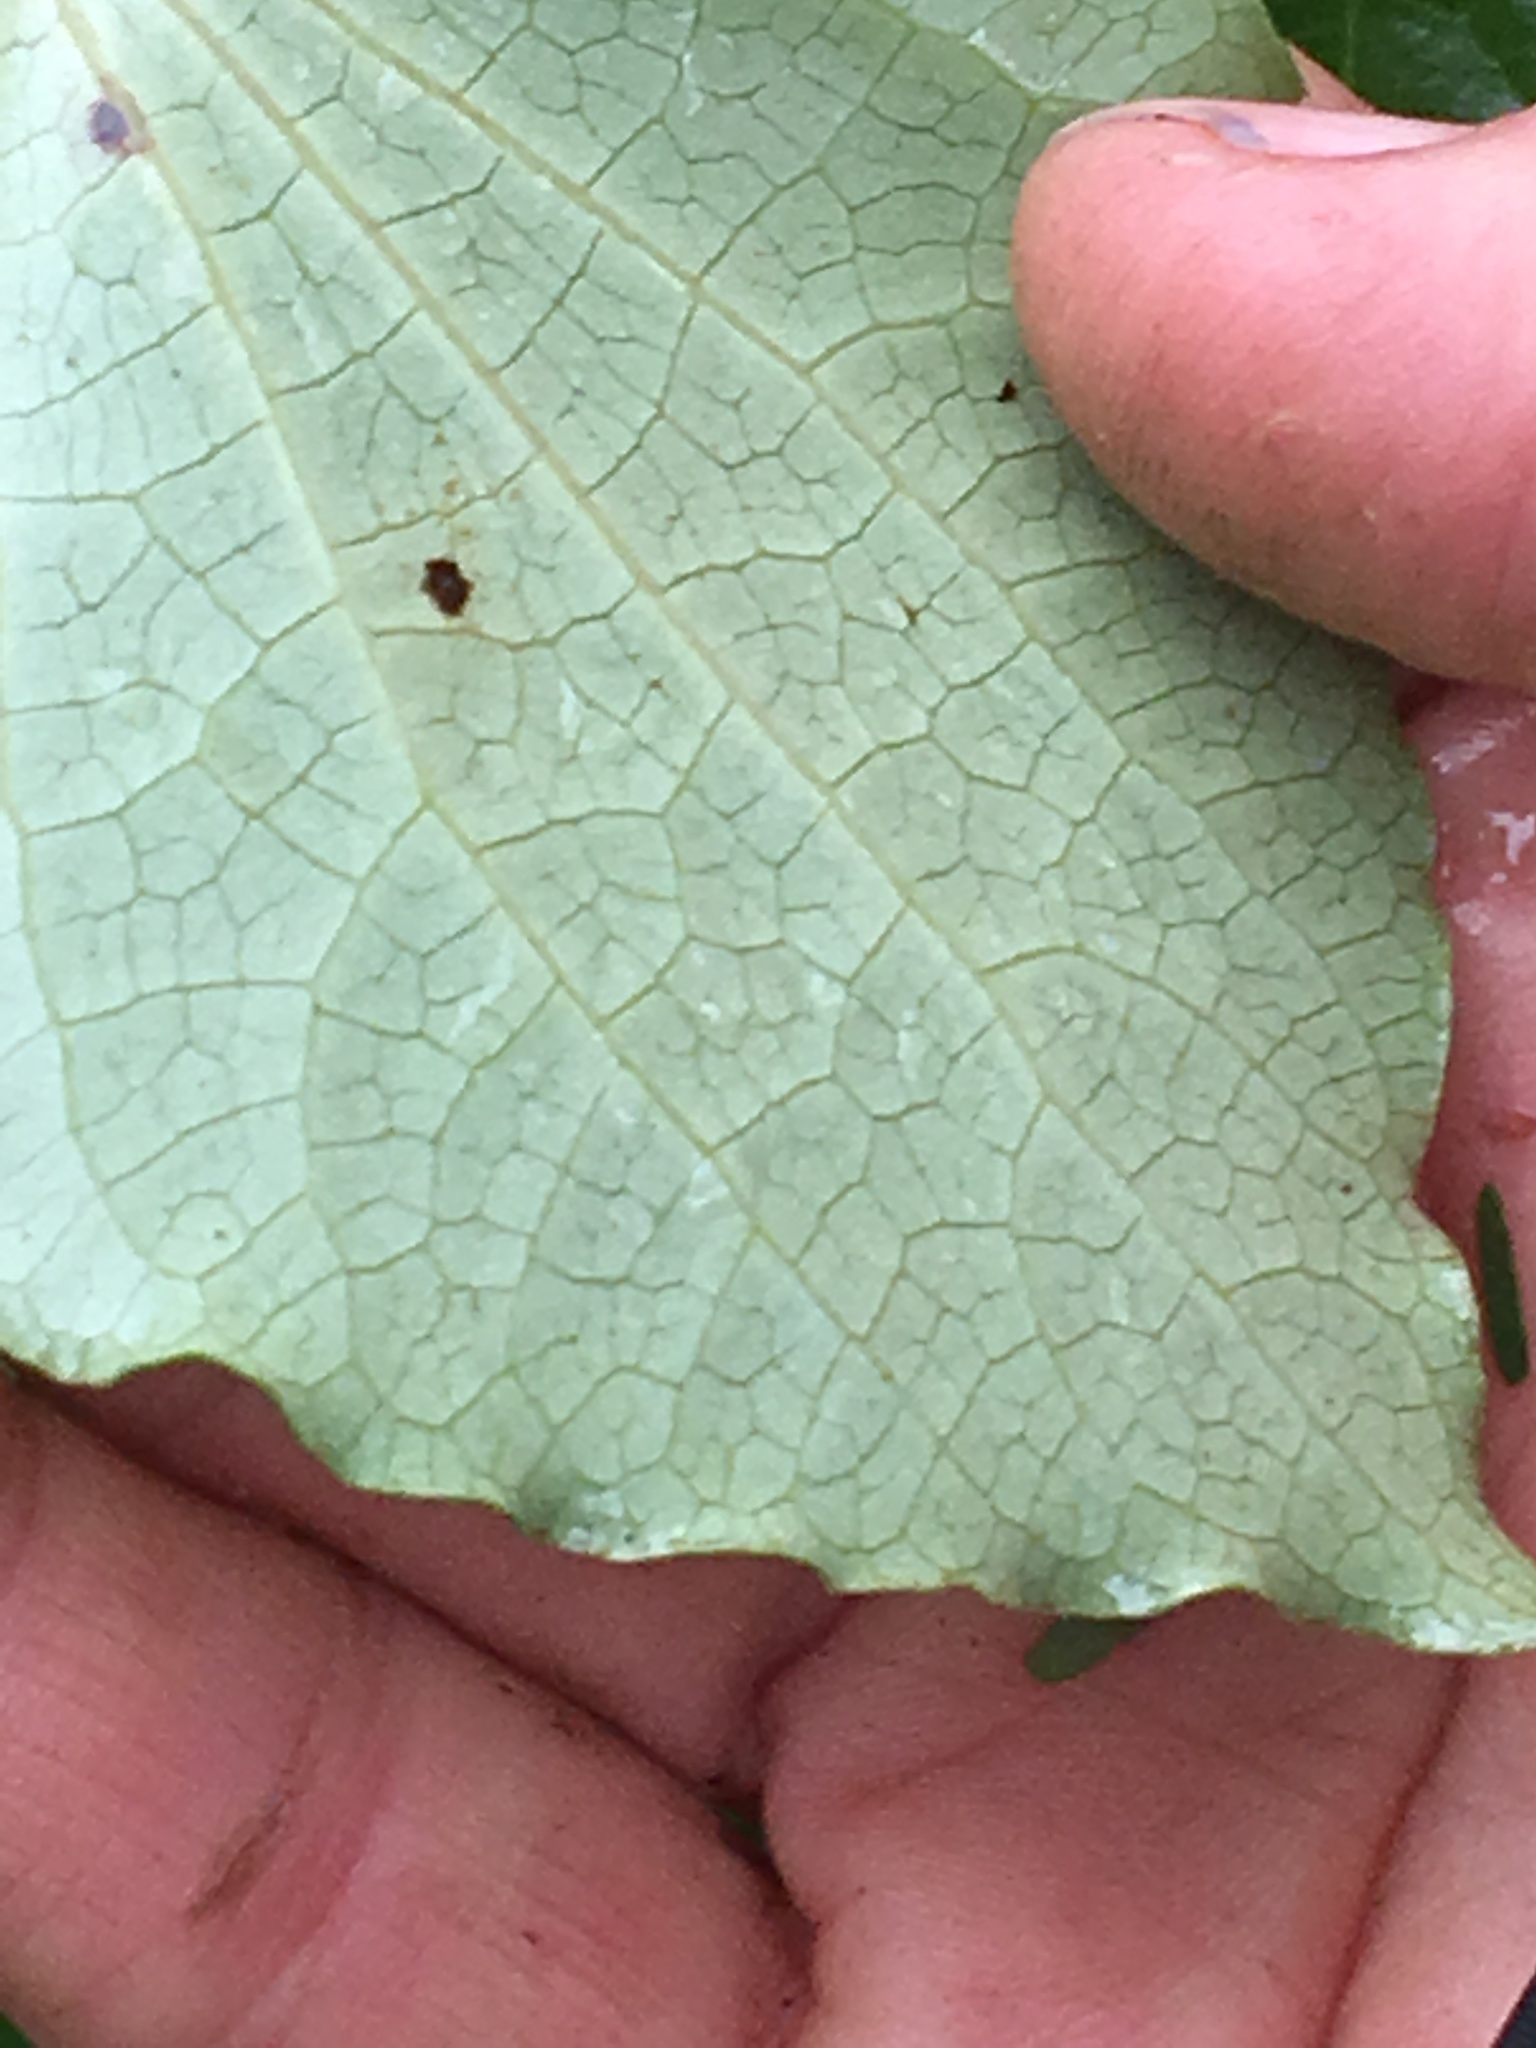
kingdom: Plantae
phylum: Tracheophyta
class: Magnoliopsida
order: Piperales
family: Piperaceae
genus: Macropiper
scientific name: Macropiper excelsum
